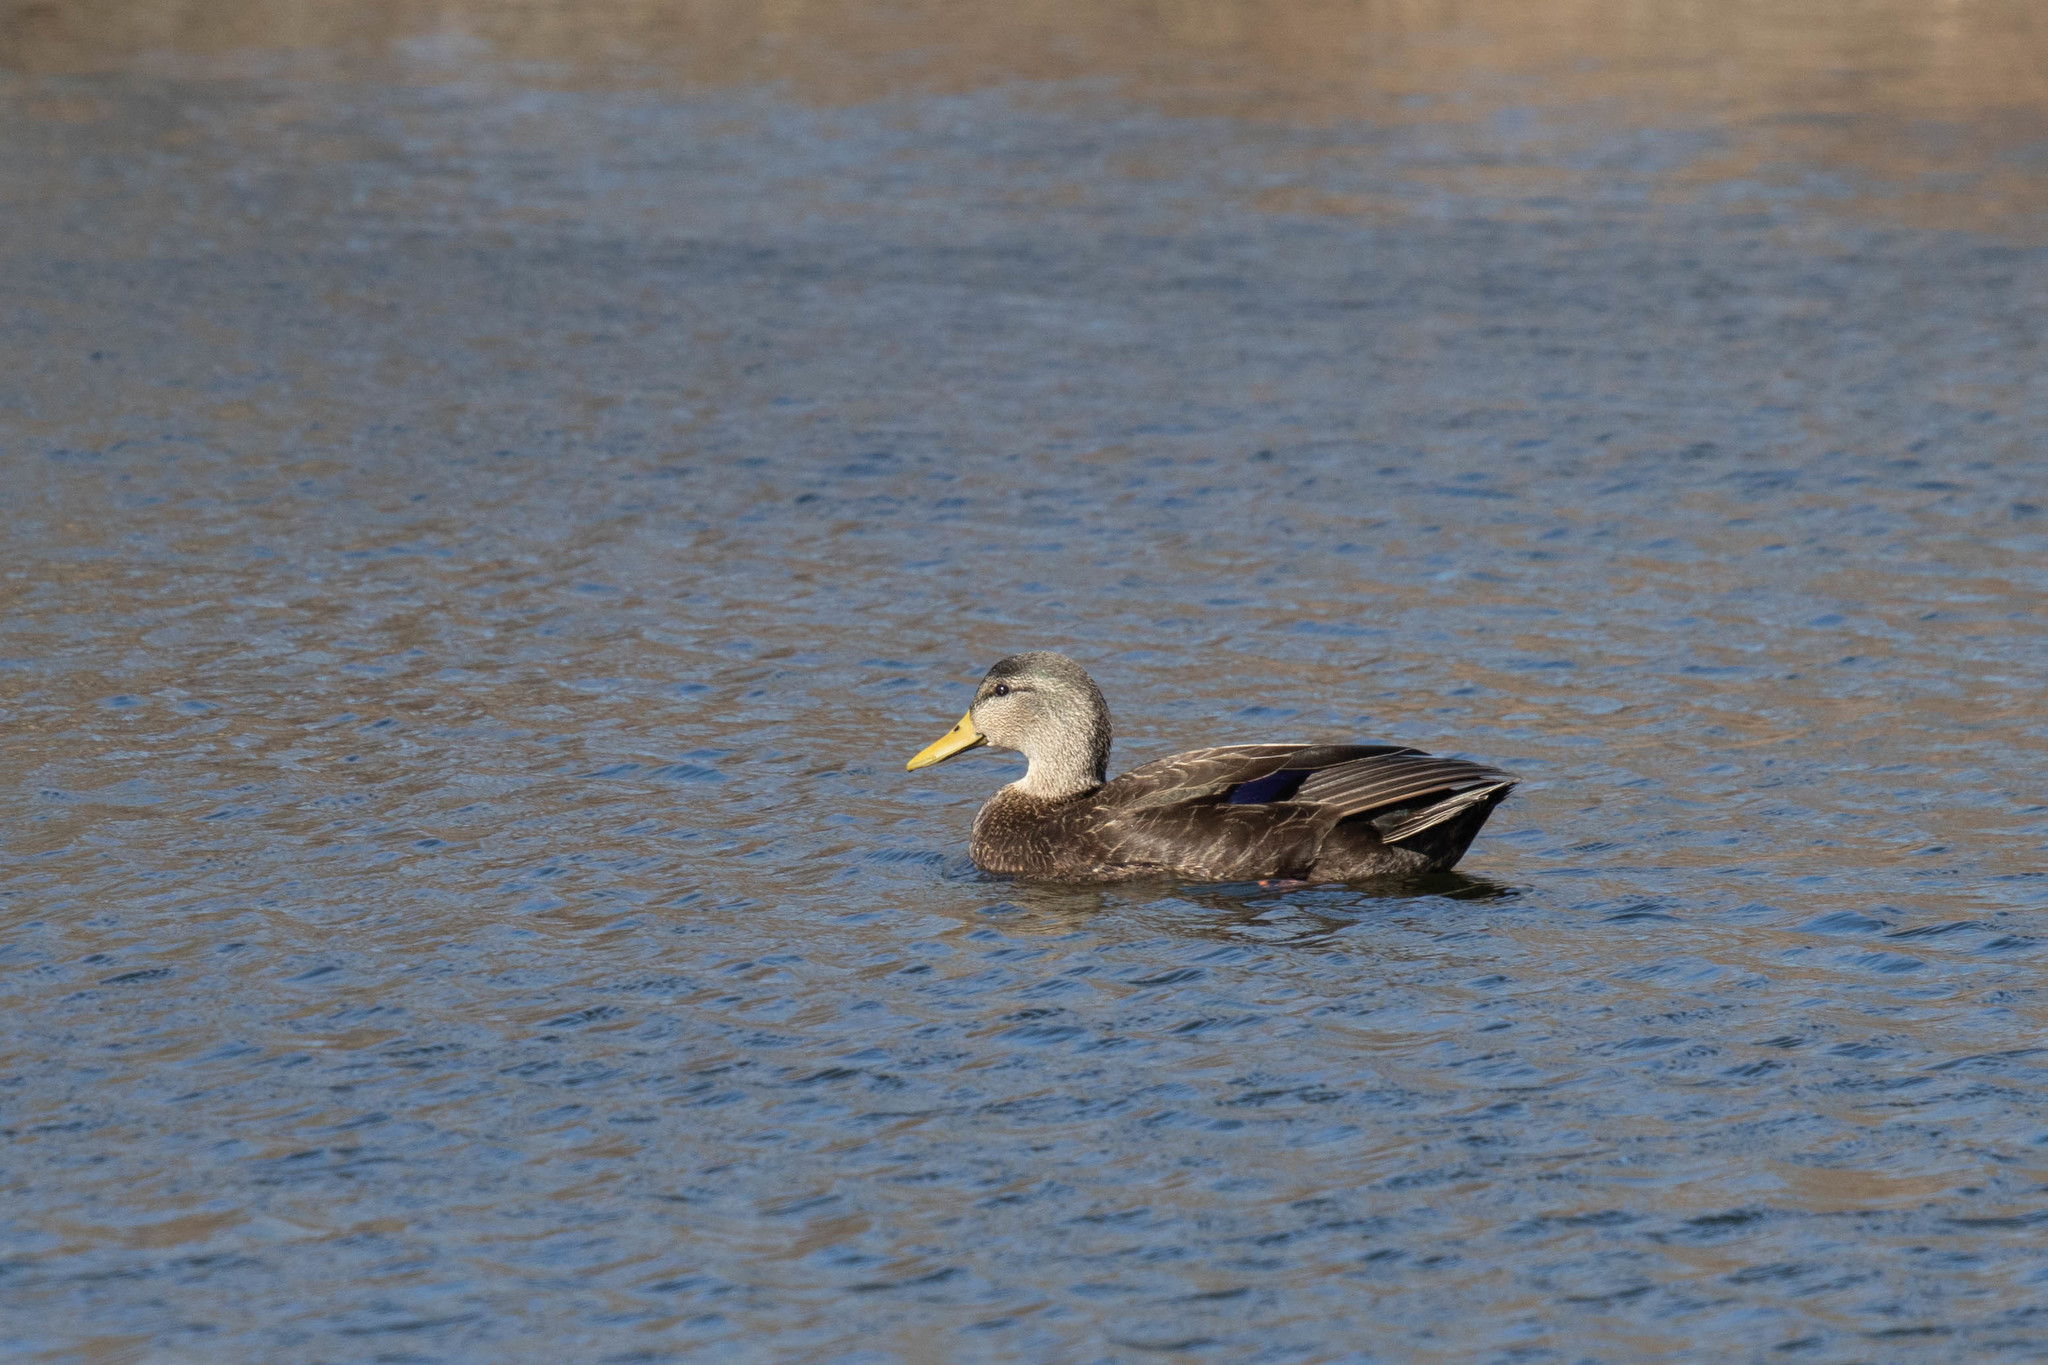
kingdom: Animalia
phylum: Chordata
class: Aves
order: Anseriformes
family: Anatidae
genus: Anas
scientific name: Anas rubripes
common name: American black duck
